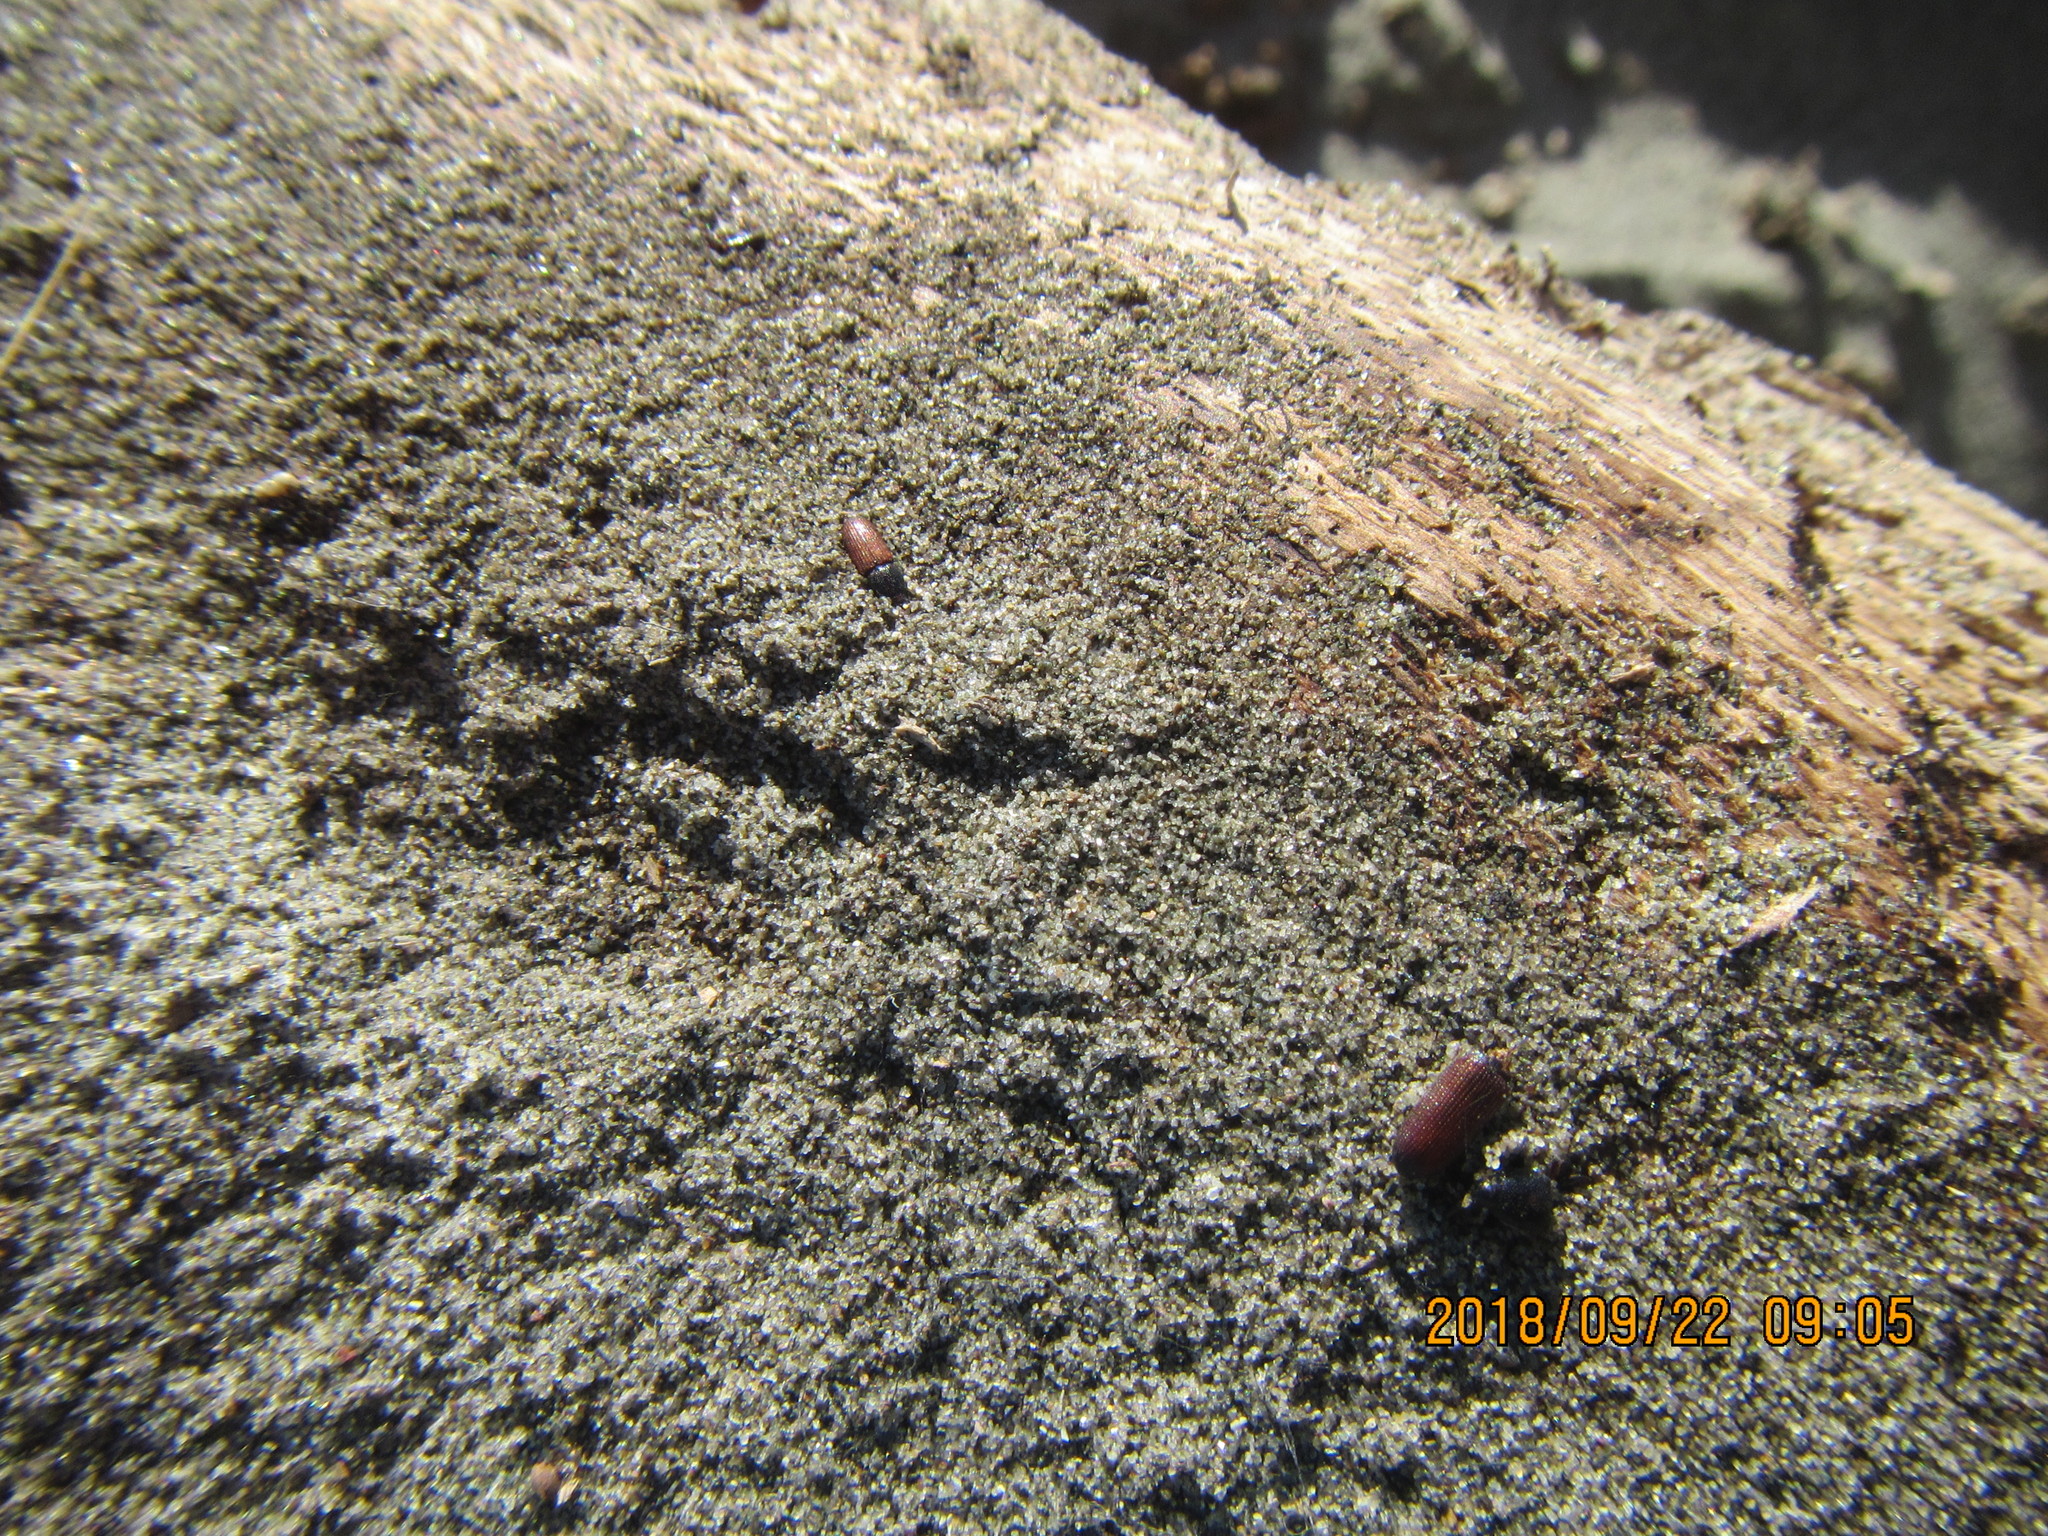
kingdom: Animalia
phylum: Arthropoda
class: Insecta
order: Coleoptera
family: Curculionidae
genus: Mesites
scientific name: Mesites pallidipennis
